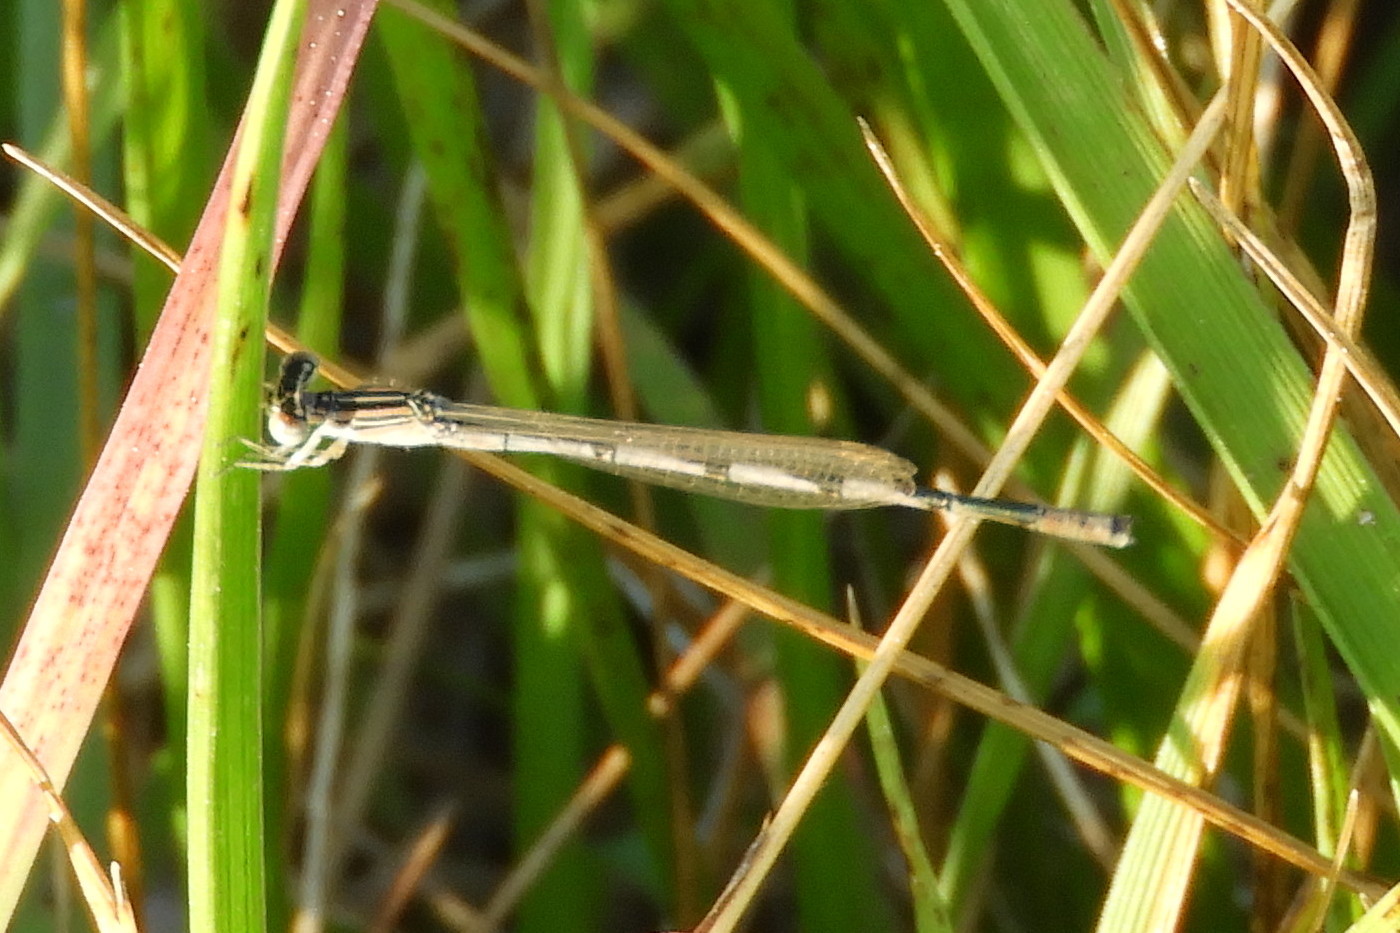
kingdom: Animalia
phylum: Arthropoda
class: Insecta
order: Odonata
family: Coenagrionidae
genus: Enallagma
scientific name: Enallagma basidens
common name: Double-striped bluet
